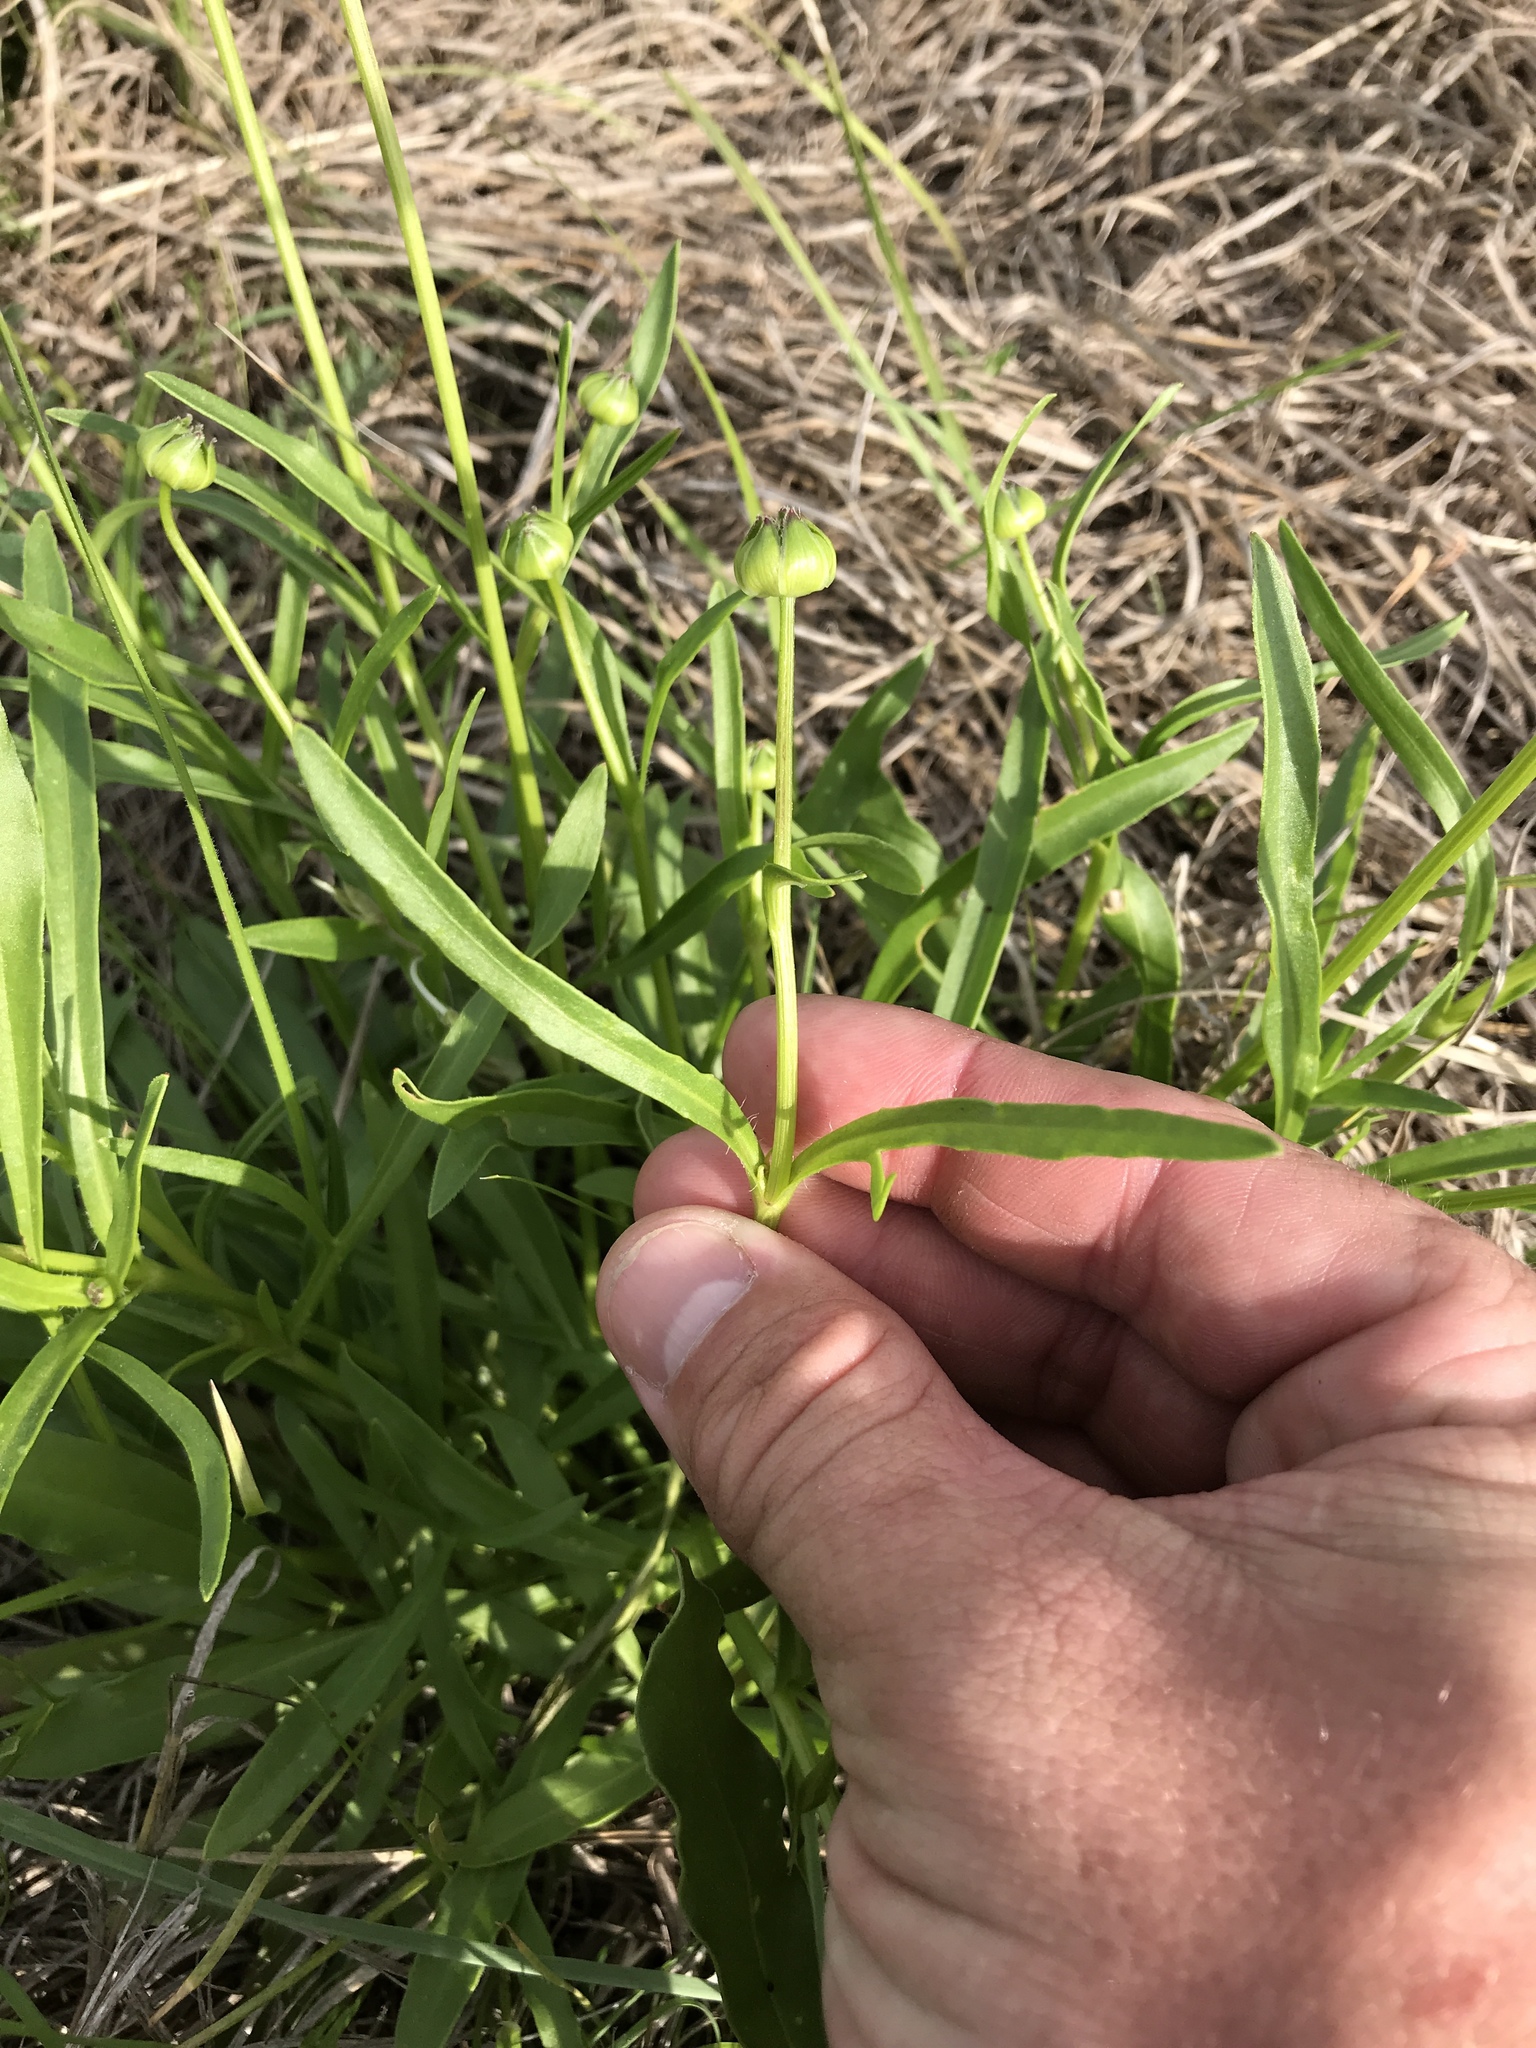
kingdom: Plantae
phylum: Tracheophyta
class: Magnoliopsida
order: Asterales
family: Asteraceae
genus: Coreopsis
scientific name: Coreopsis lanceolata
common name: Garden coreopsis
